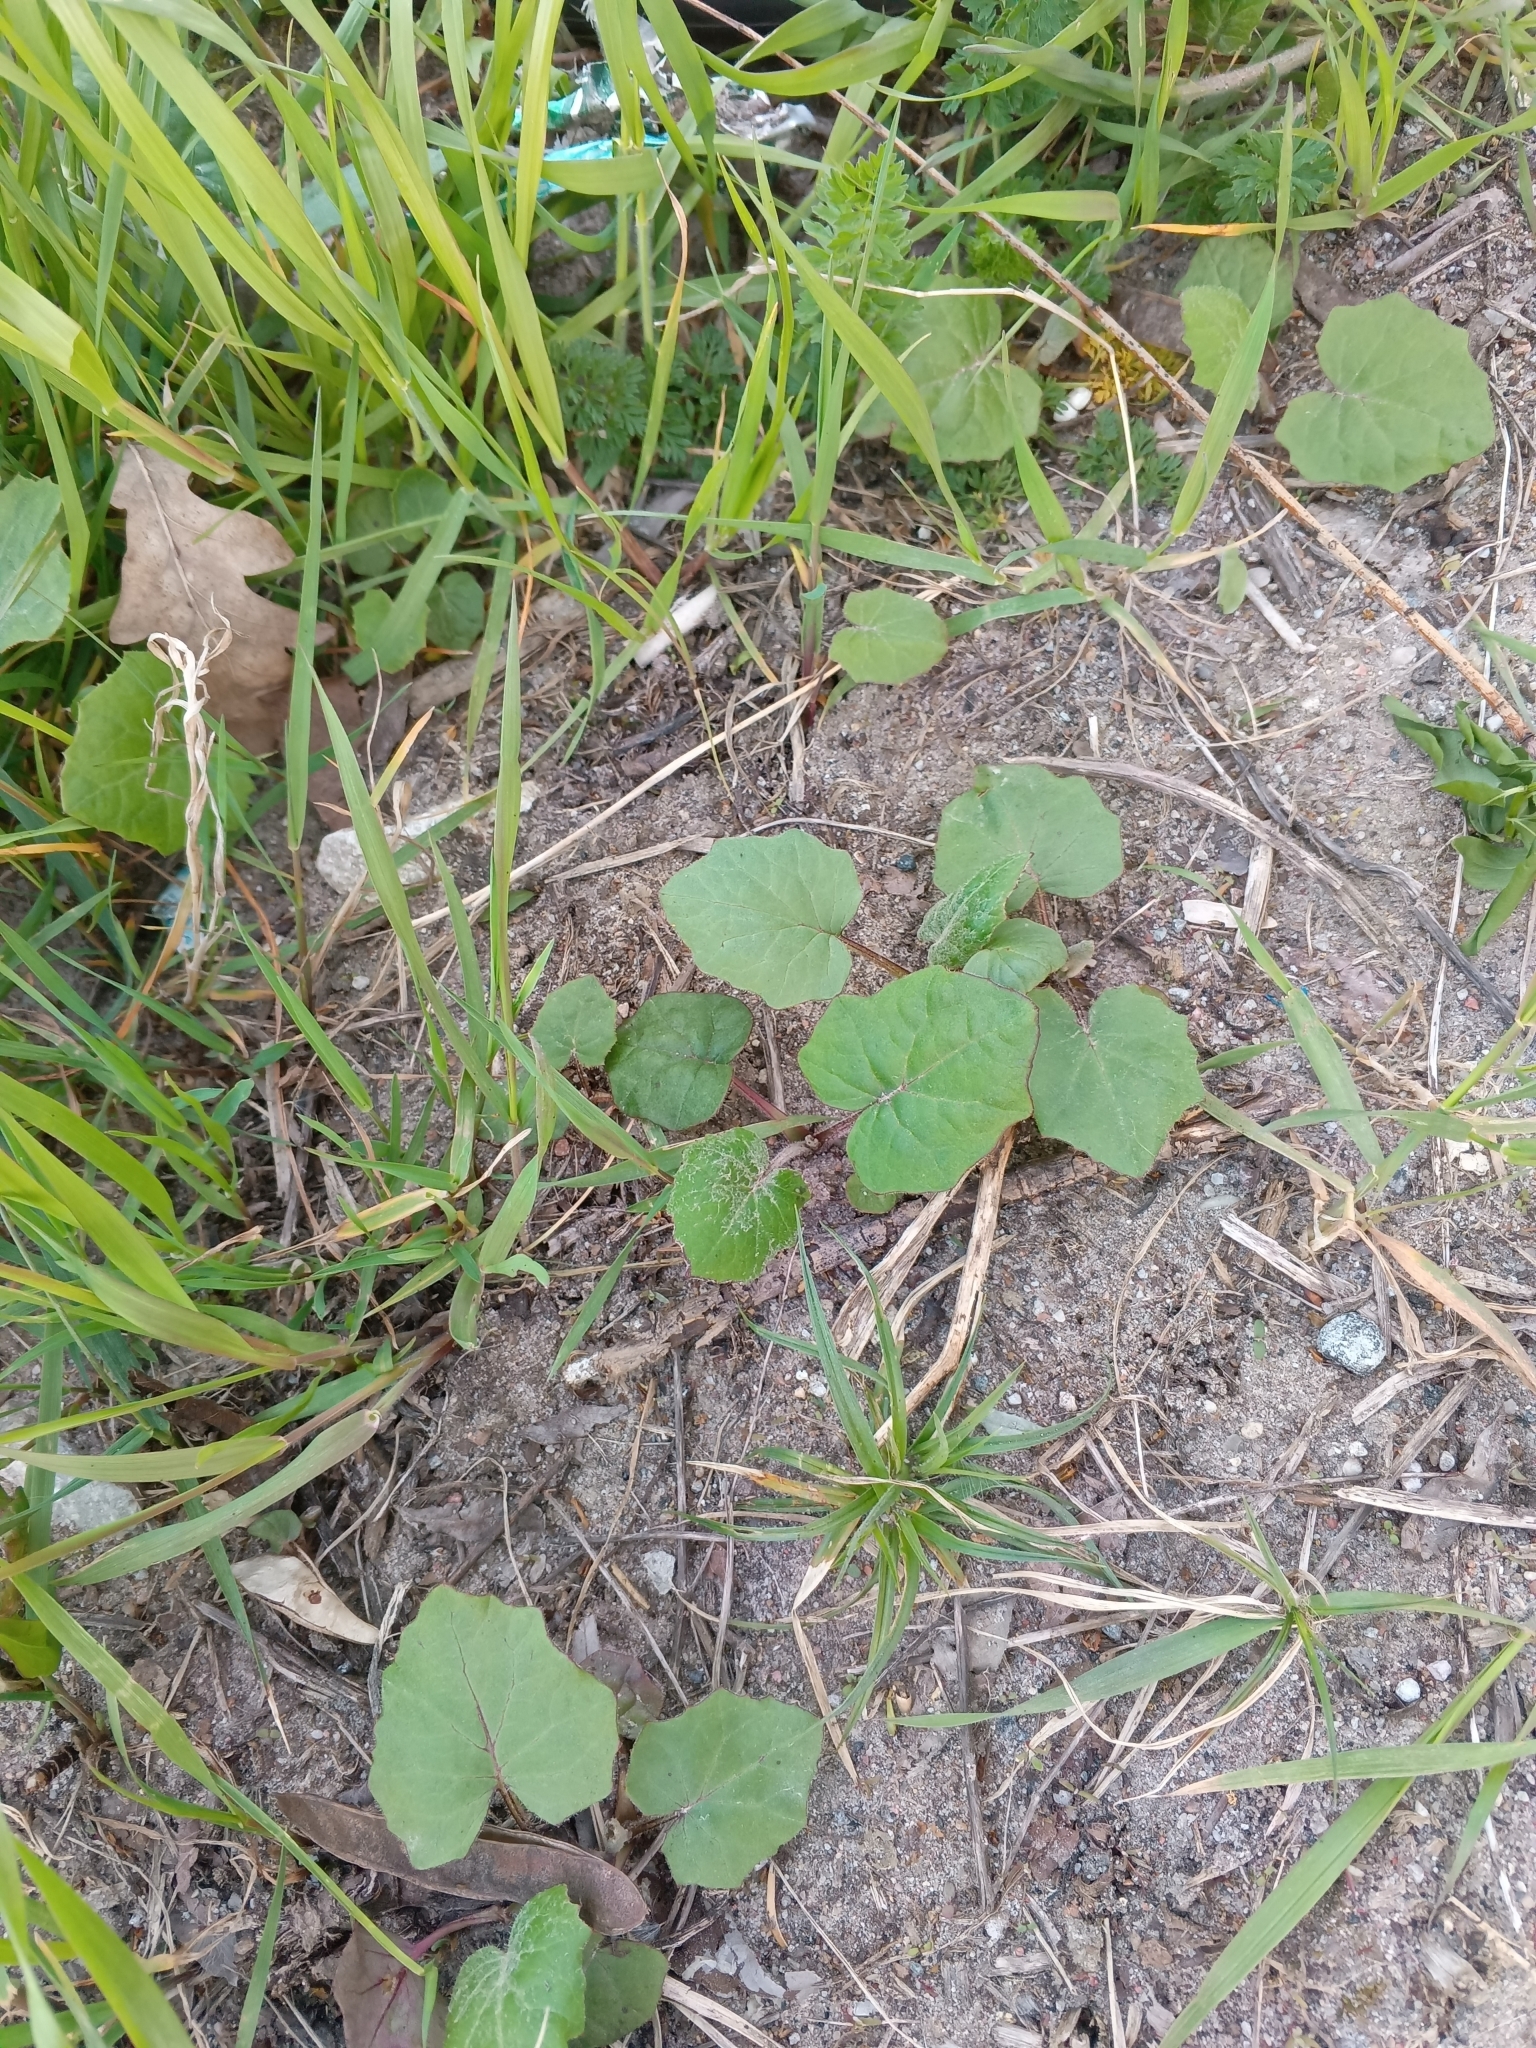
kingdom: Plantae
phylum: Tracheophyta
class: Magnoliopsida
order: Asterales
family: Asteraceae
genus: Tussilago
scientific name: Tussilago farfara
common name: Coltsfoot
